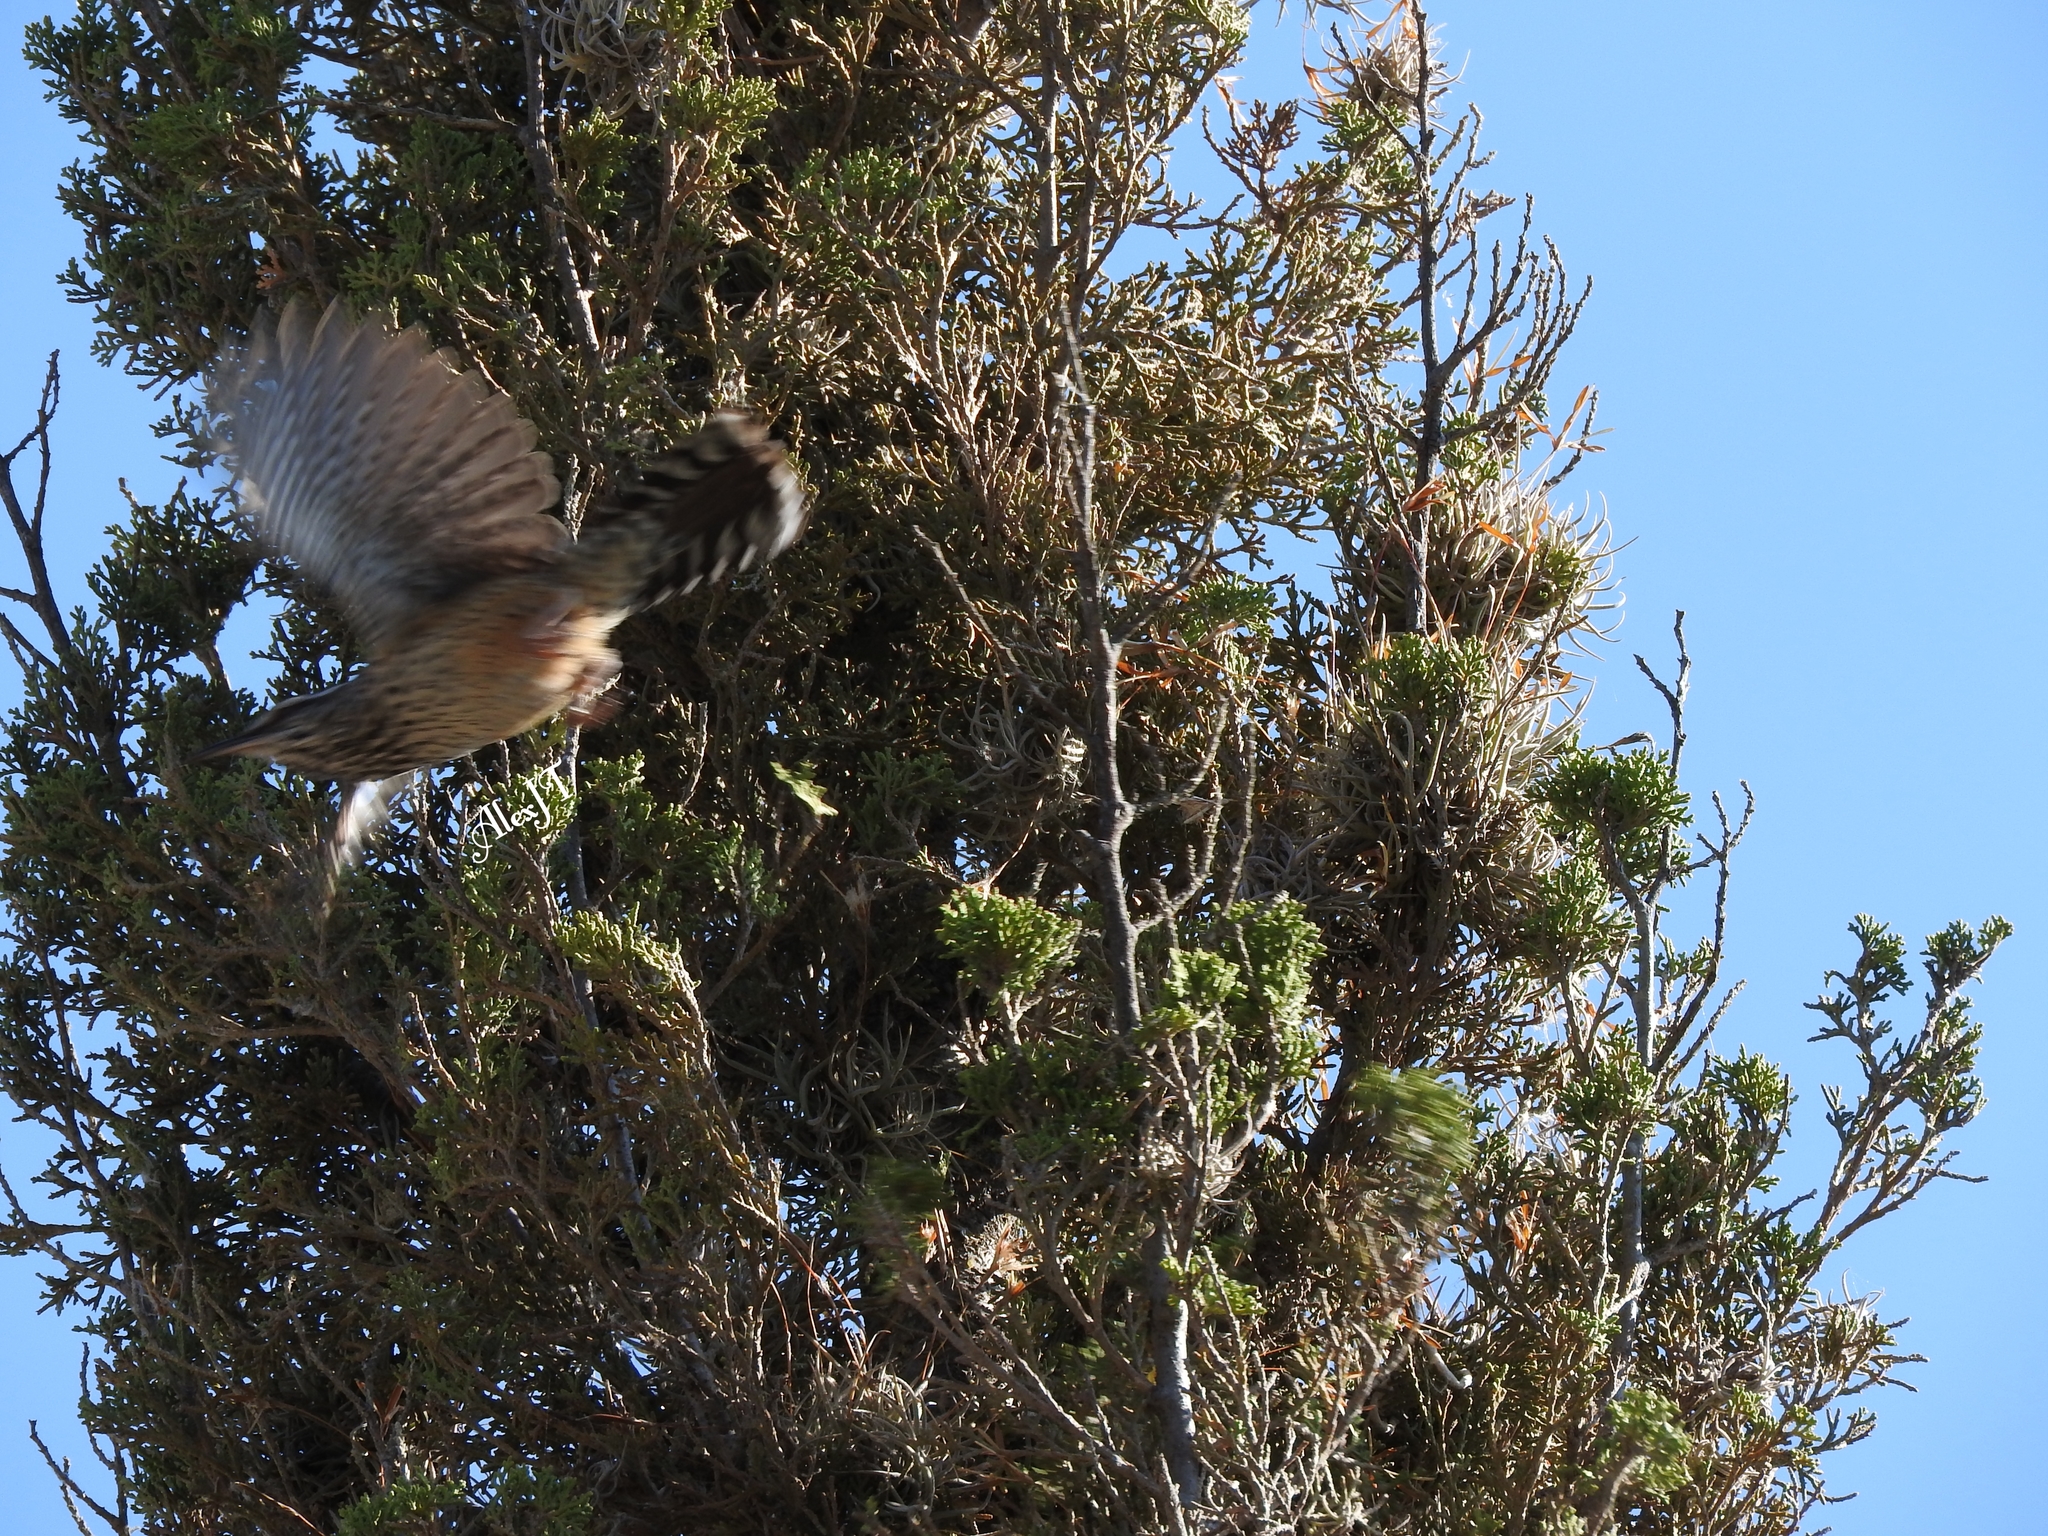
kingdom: Animalia
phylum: Chordata
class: Aves
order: Passeriformes
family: Troglodytidae
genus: Campylorhynchus
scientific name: Campylorhynchus brunneicapillus
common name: Cactus wren
